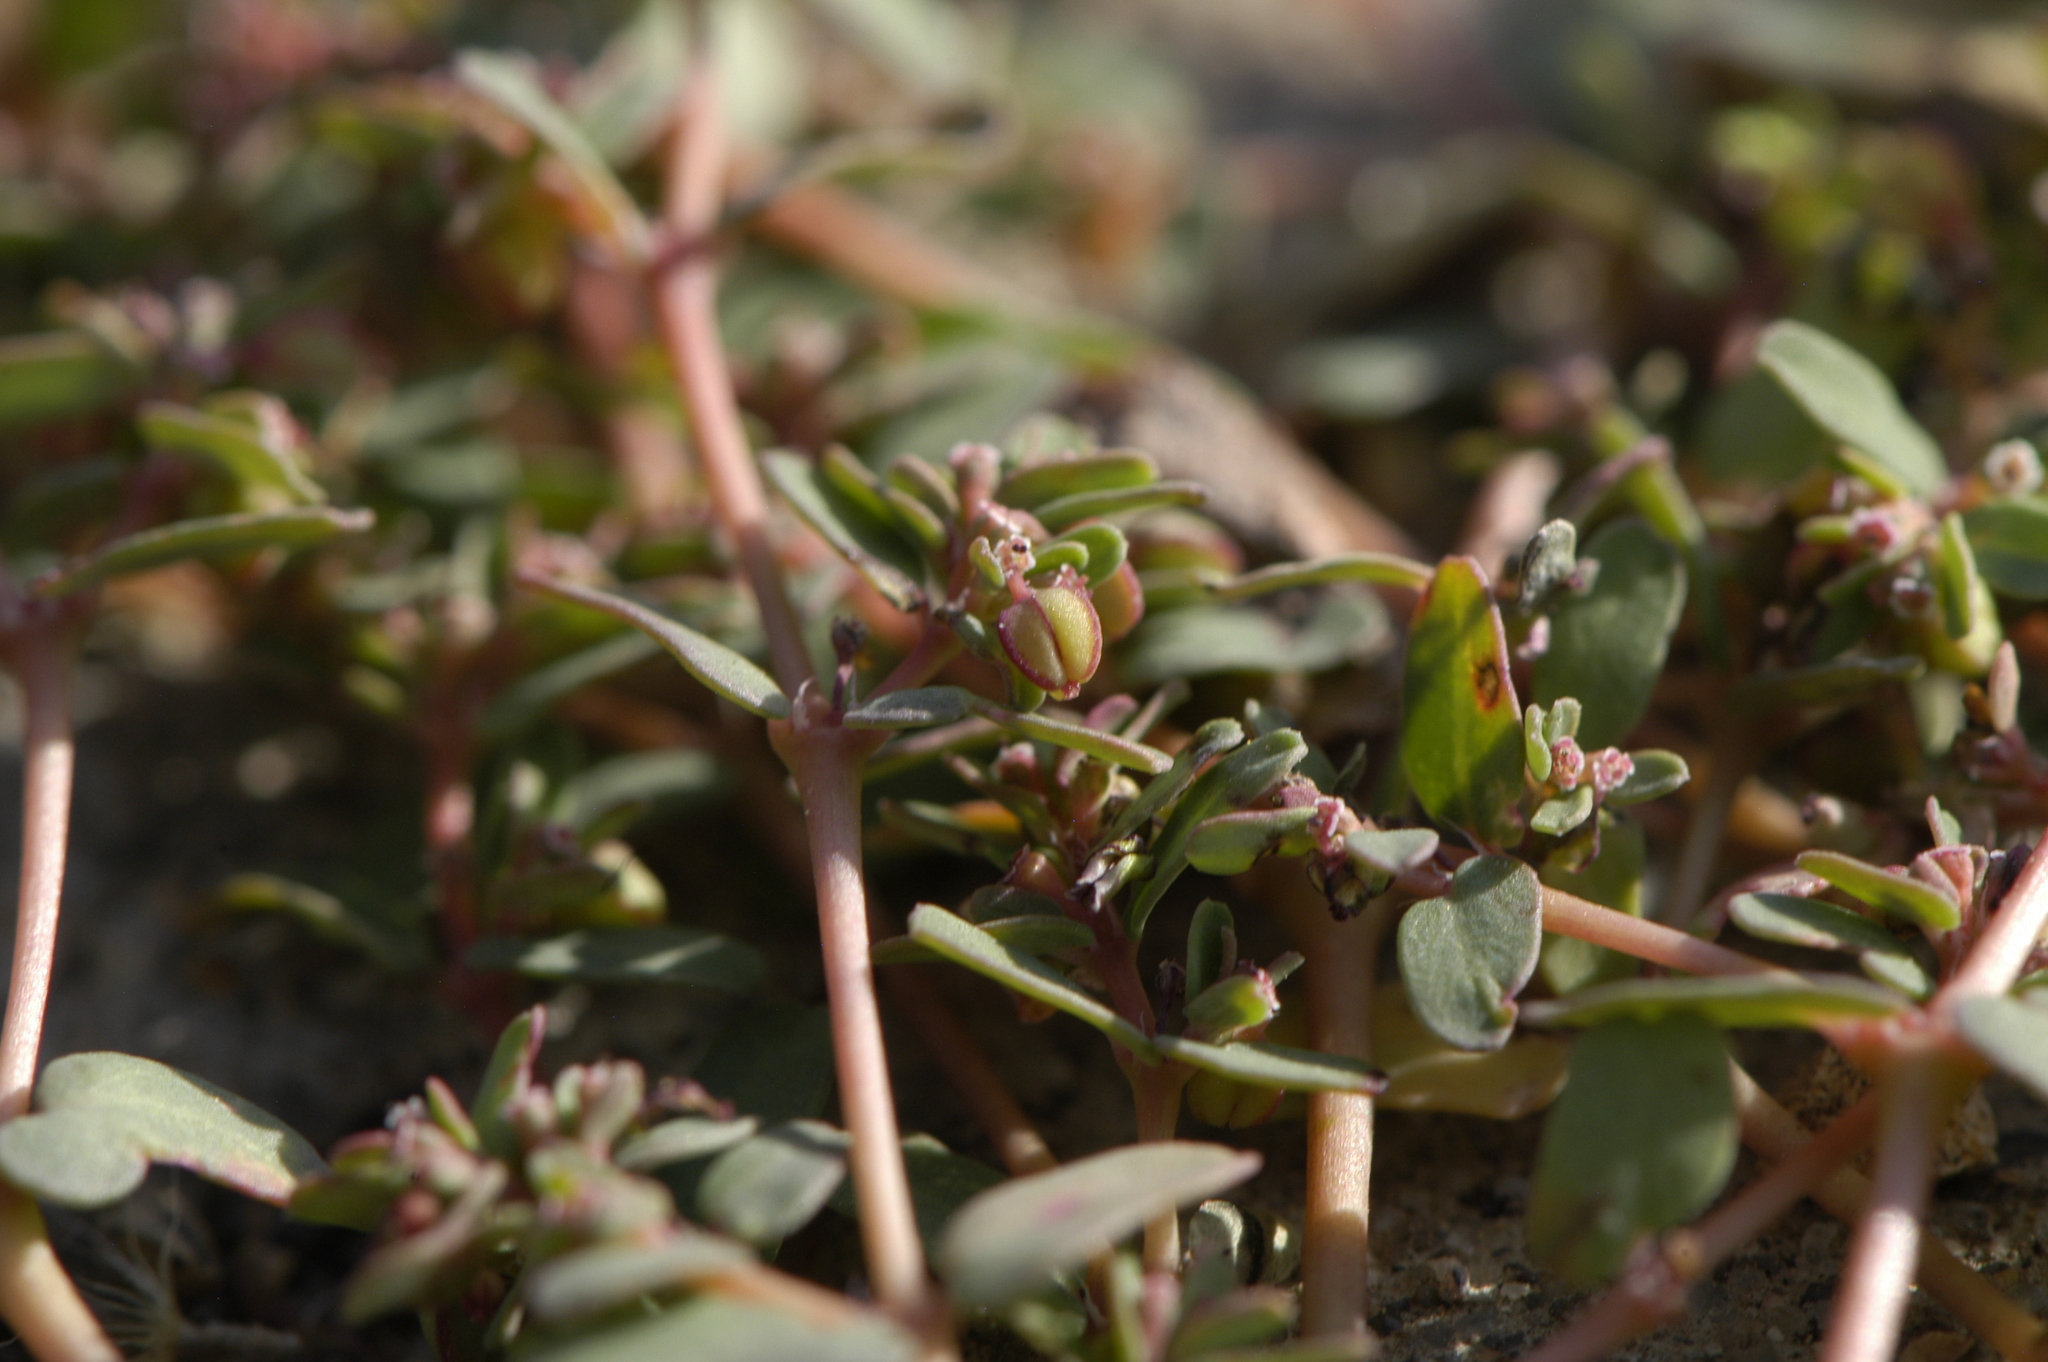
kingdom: Plantae
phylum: Tracheophyta
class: Magnoliopsida
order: Malpighiales
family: Euphorbiaceae
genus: Euphorbia
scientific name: Euphorbia glyptosperma
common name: Corrugate-seeded spurge
